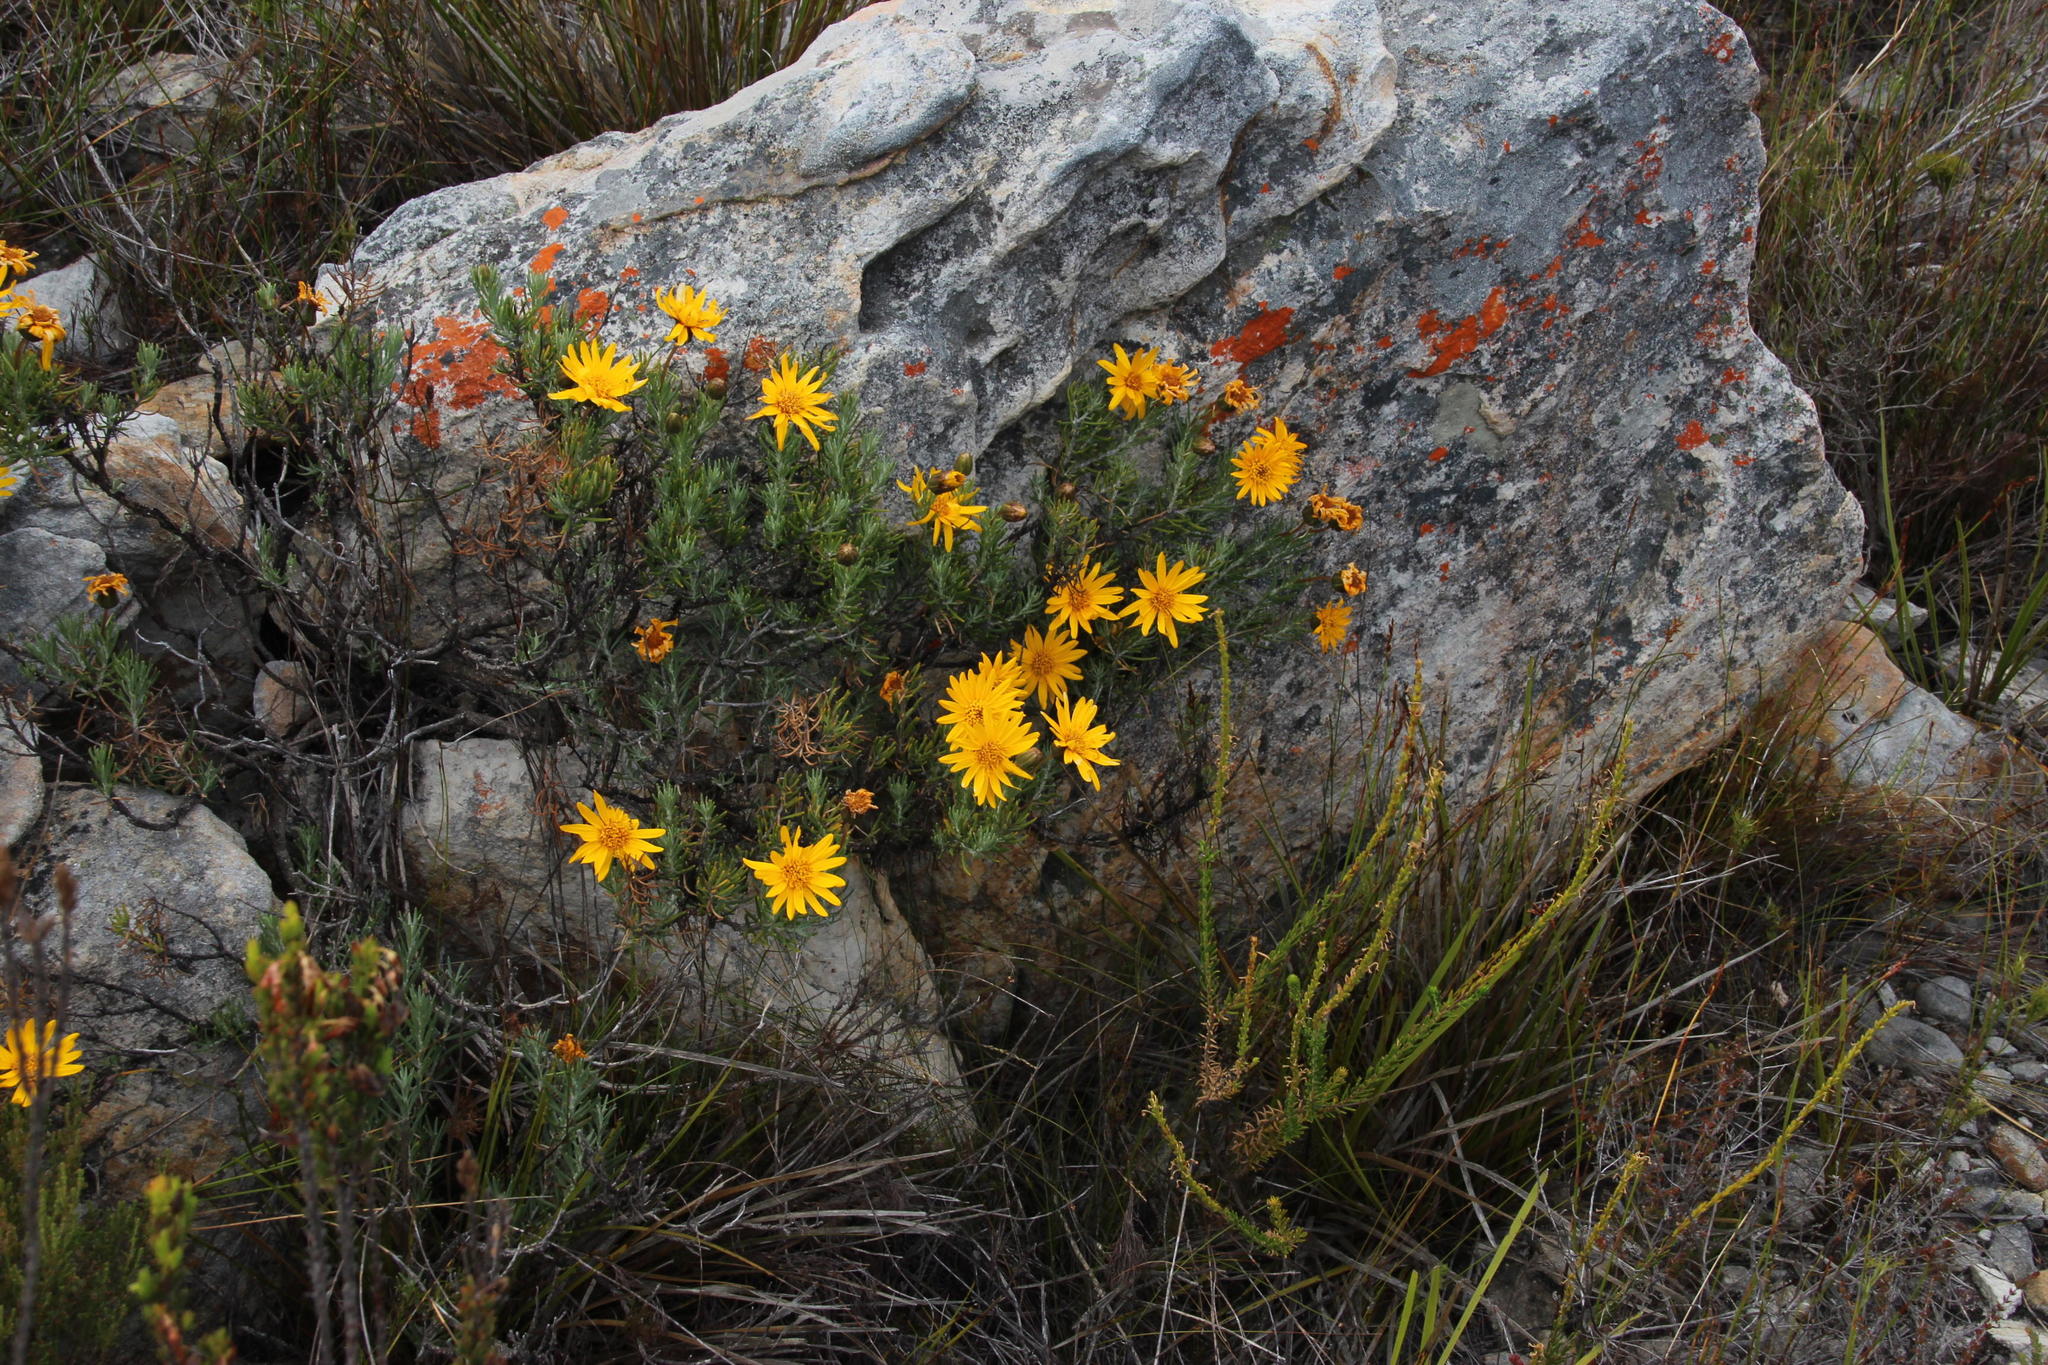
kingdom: Plantae
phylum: Tracheophyta
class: Magnoliopsida
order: Asterales
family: Asteraceae
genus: Heterolepis
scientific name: Heterolepis aliena
